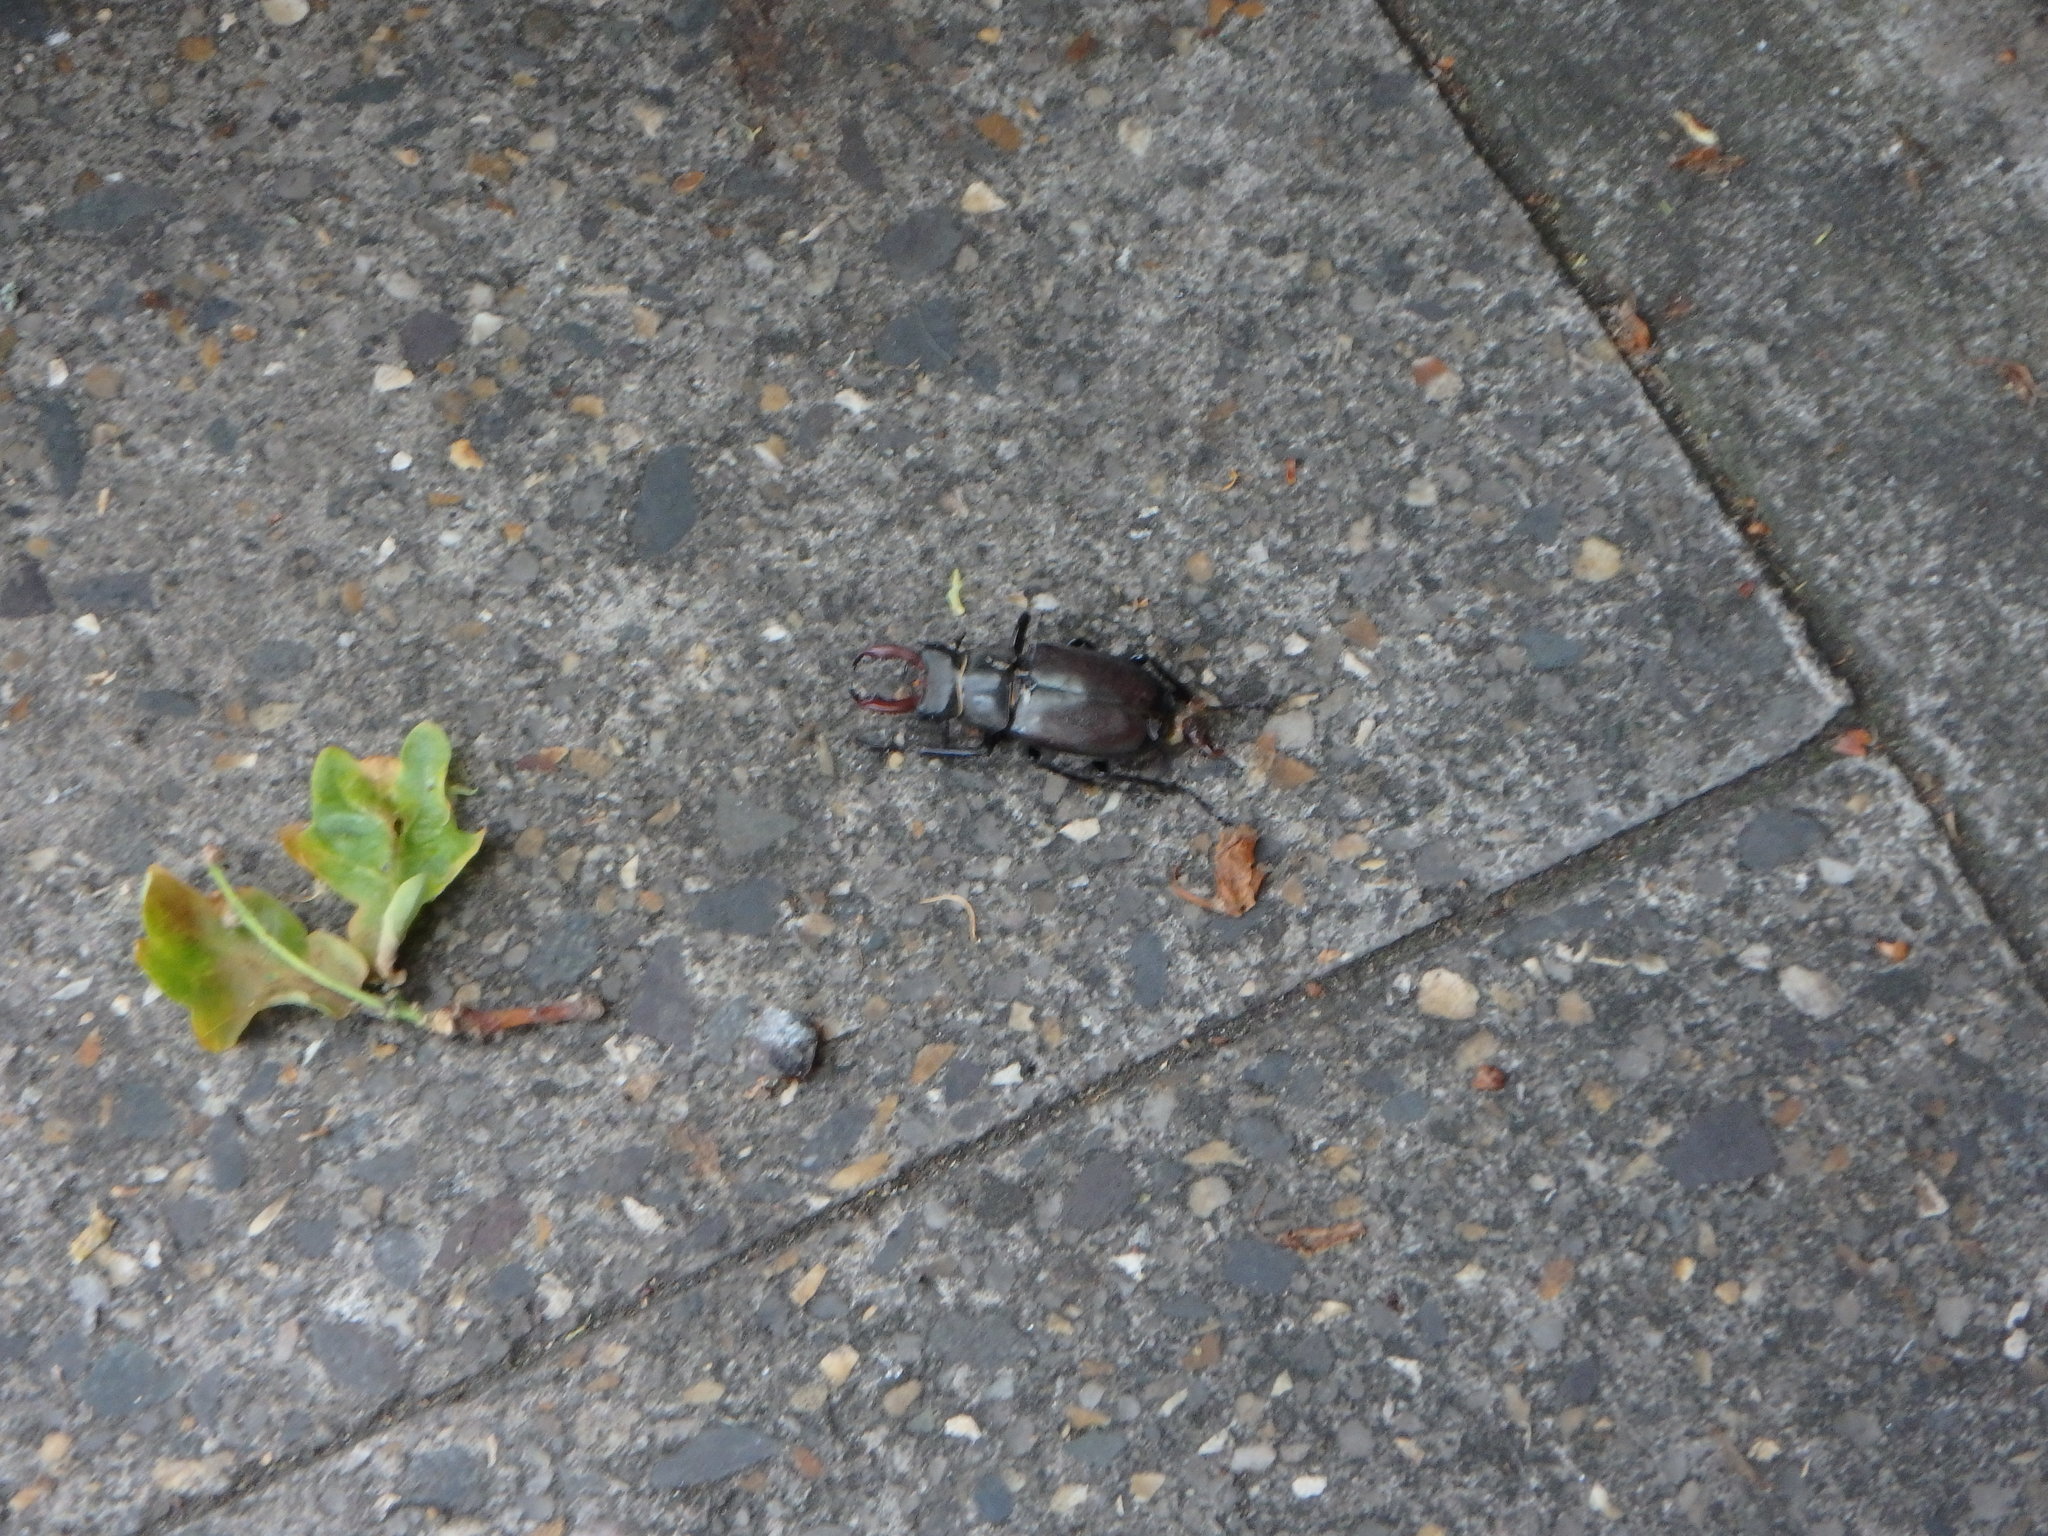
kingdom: Animalia
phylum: Arthropoda
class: Insecta
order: Coleoptera
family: Lucanidae
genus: Lucanus
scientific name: Lucanus cervus
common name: Stag beetle
